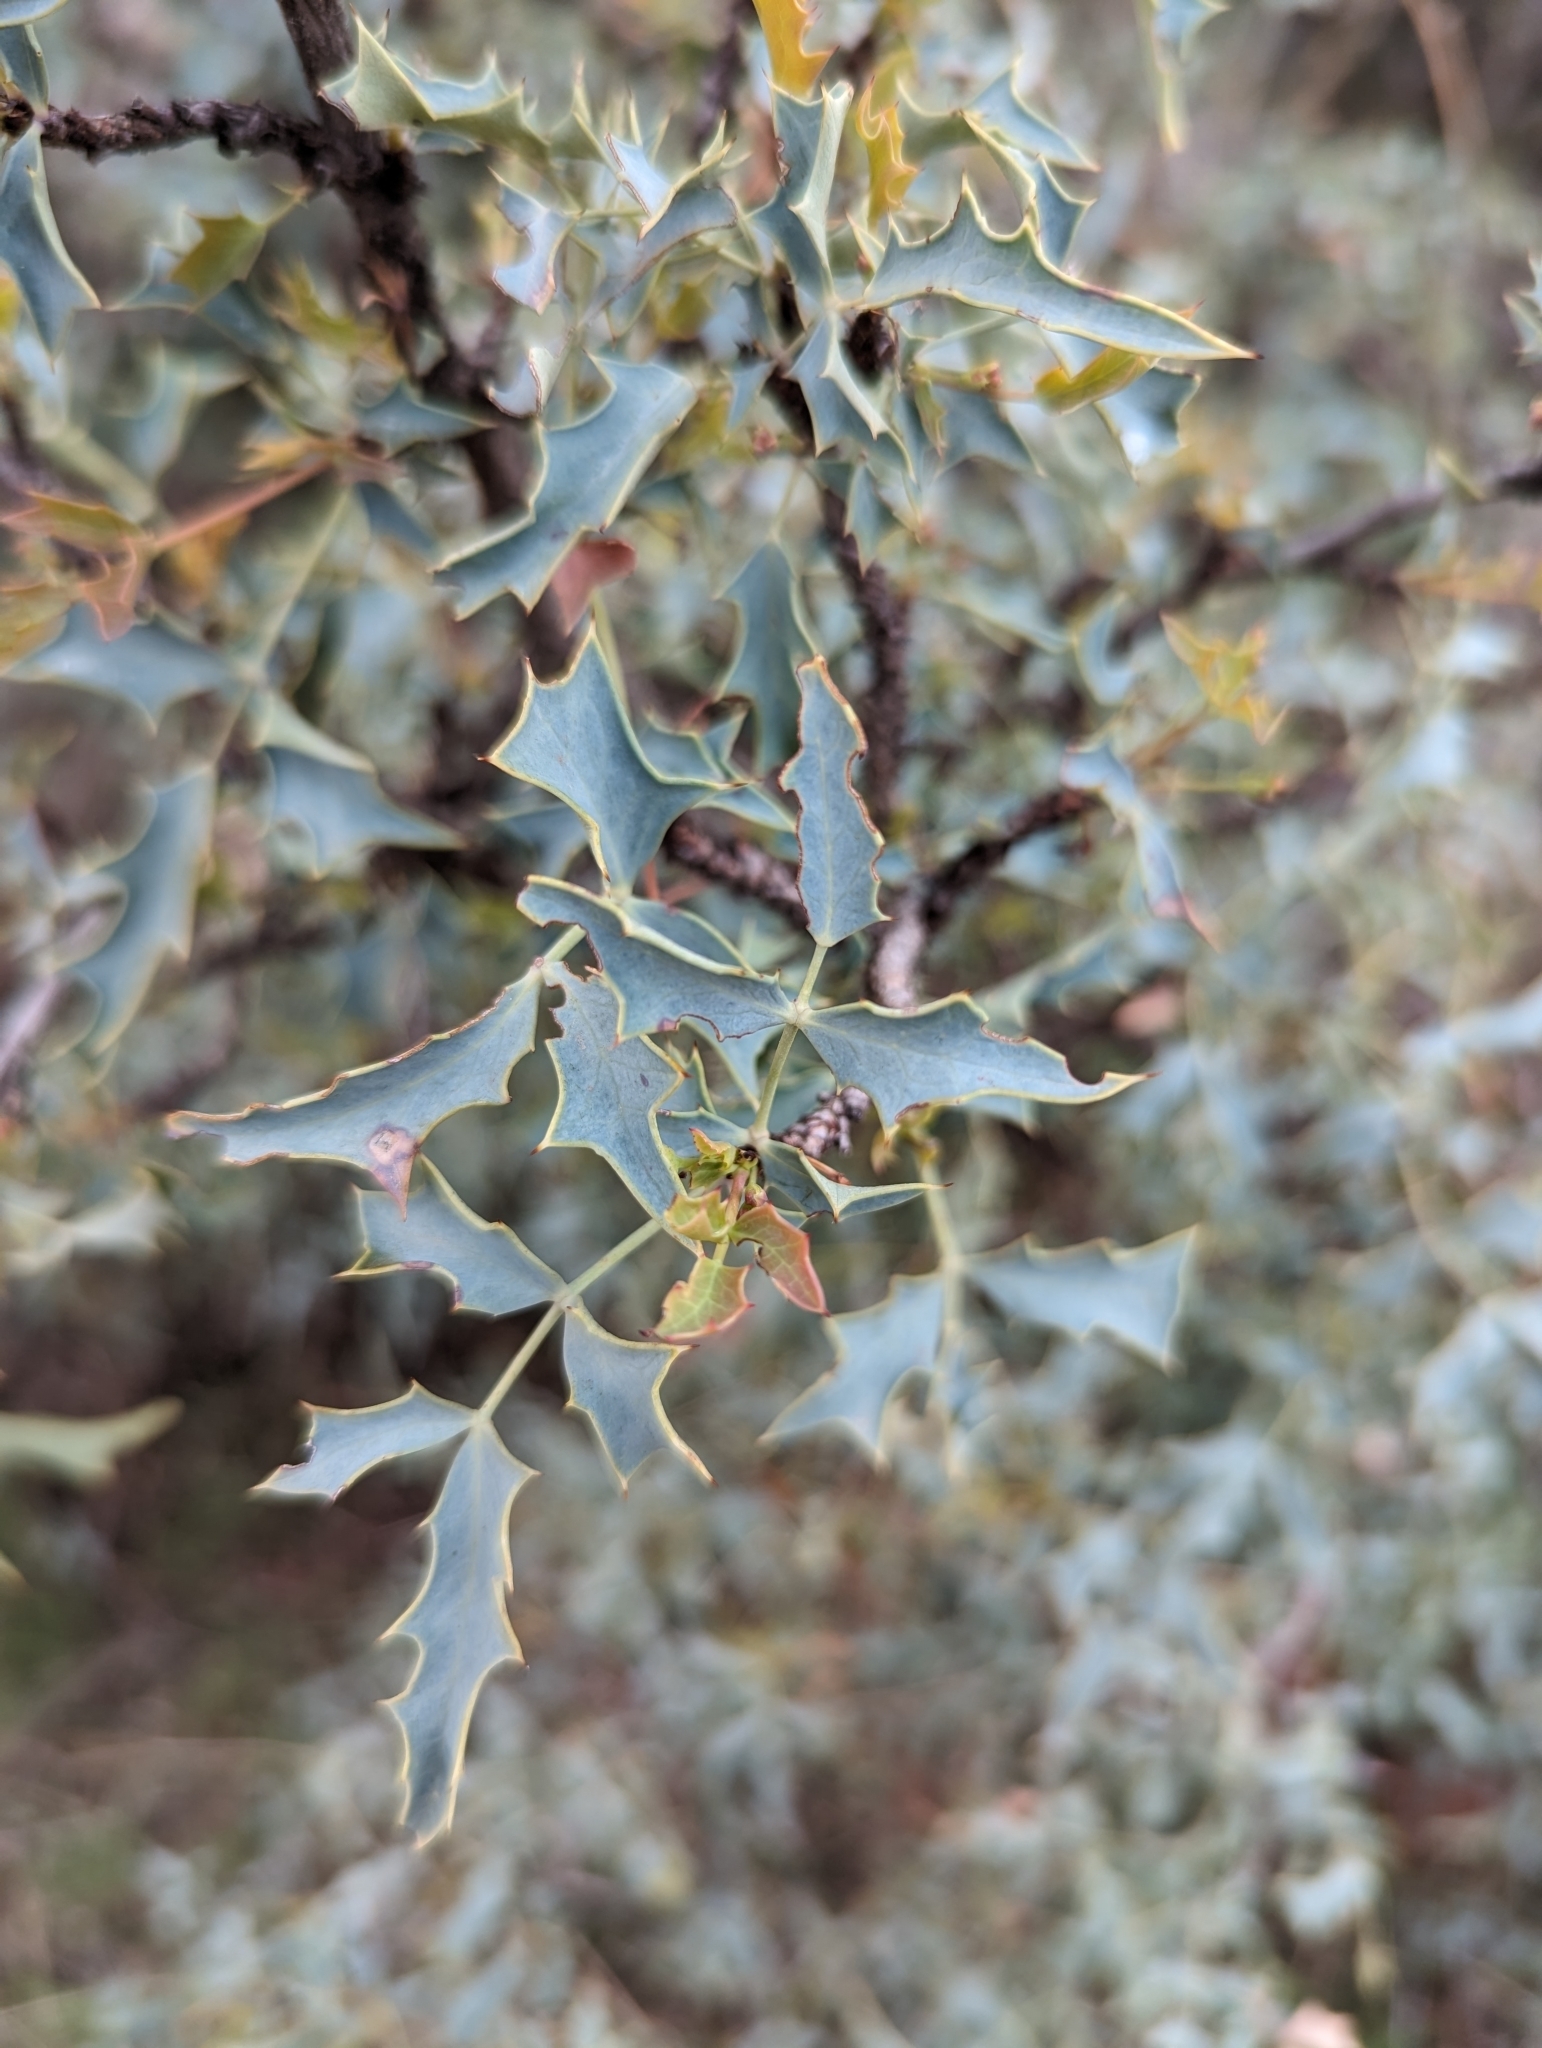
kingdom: Plantae
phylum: Tracheophyta
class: Magnoliopsida
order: Ranunculales
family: Berberidaceae
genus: Alloberberis
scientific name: Alloberberis haematocarpa
